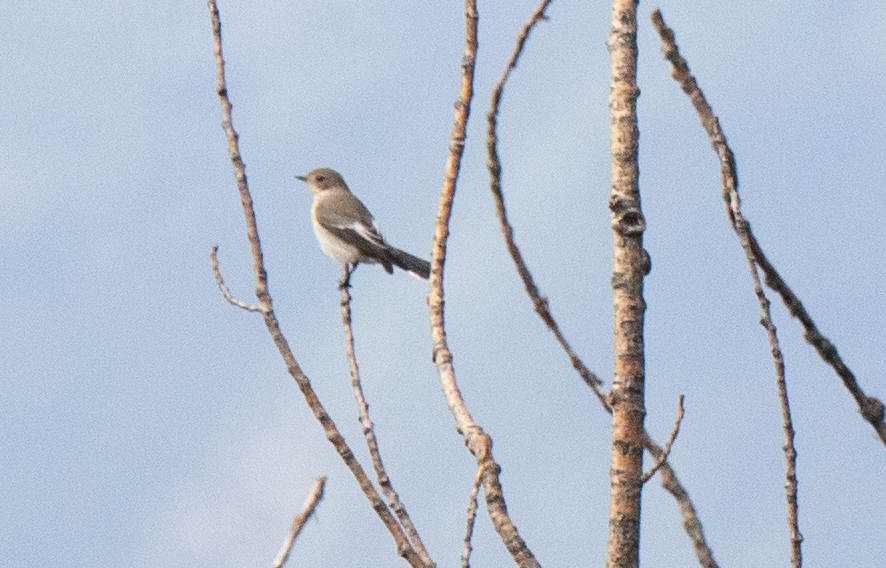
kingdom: Animalia
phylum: Chordata
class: Aves
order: Passeriformes
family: Muscicapidae
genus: Ficedula
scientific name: Ficedula hypoleuca
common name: European pied flycatcher
